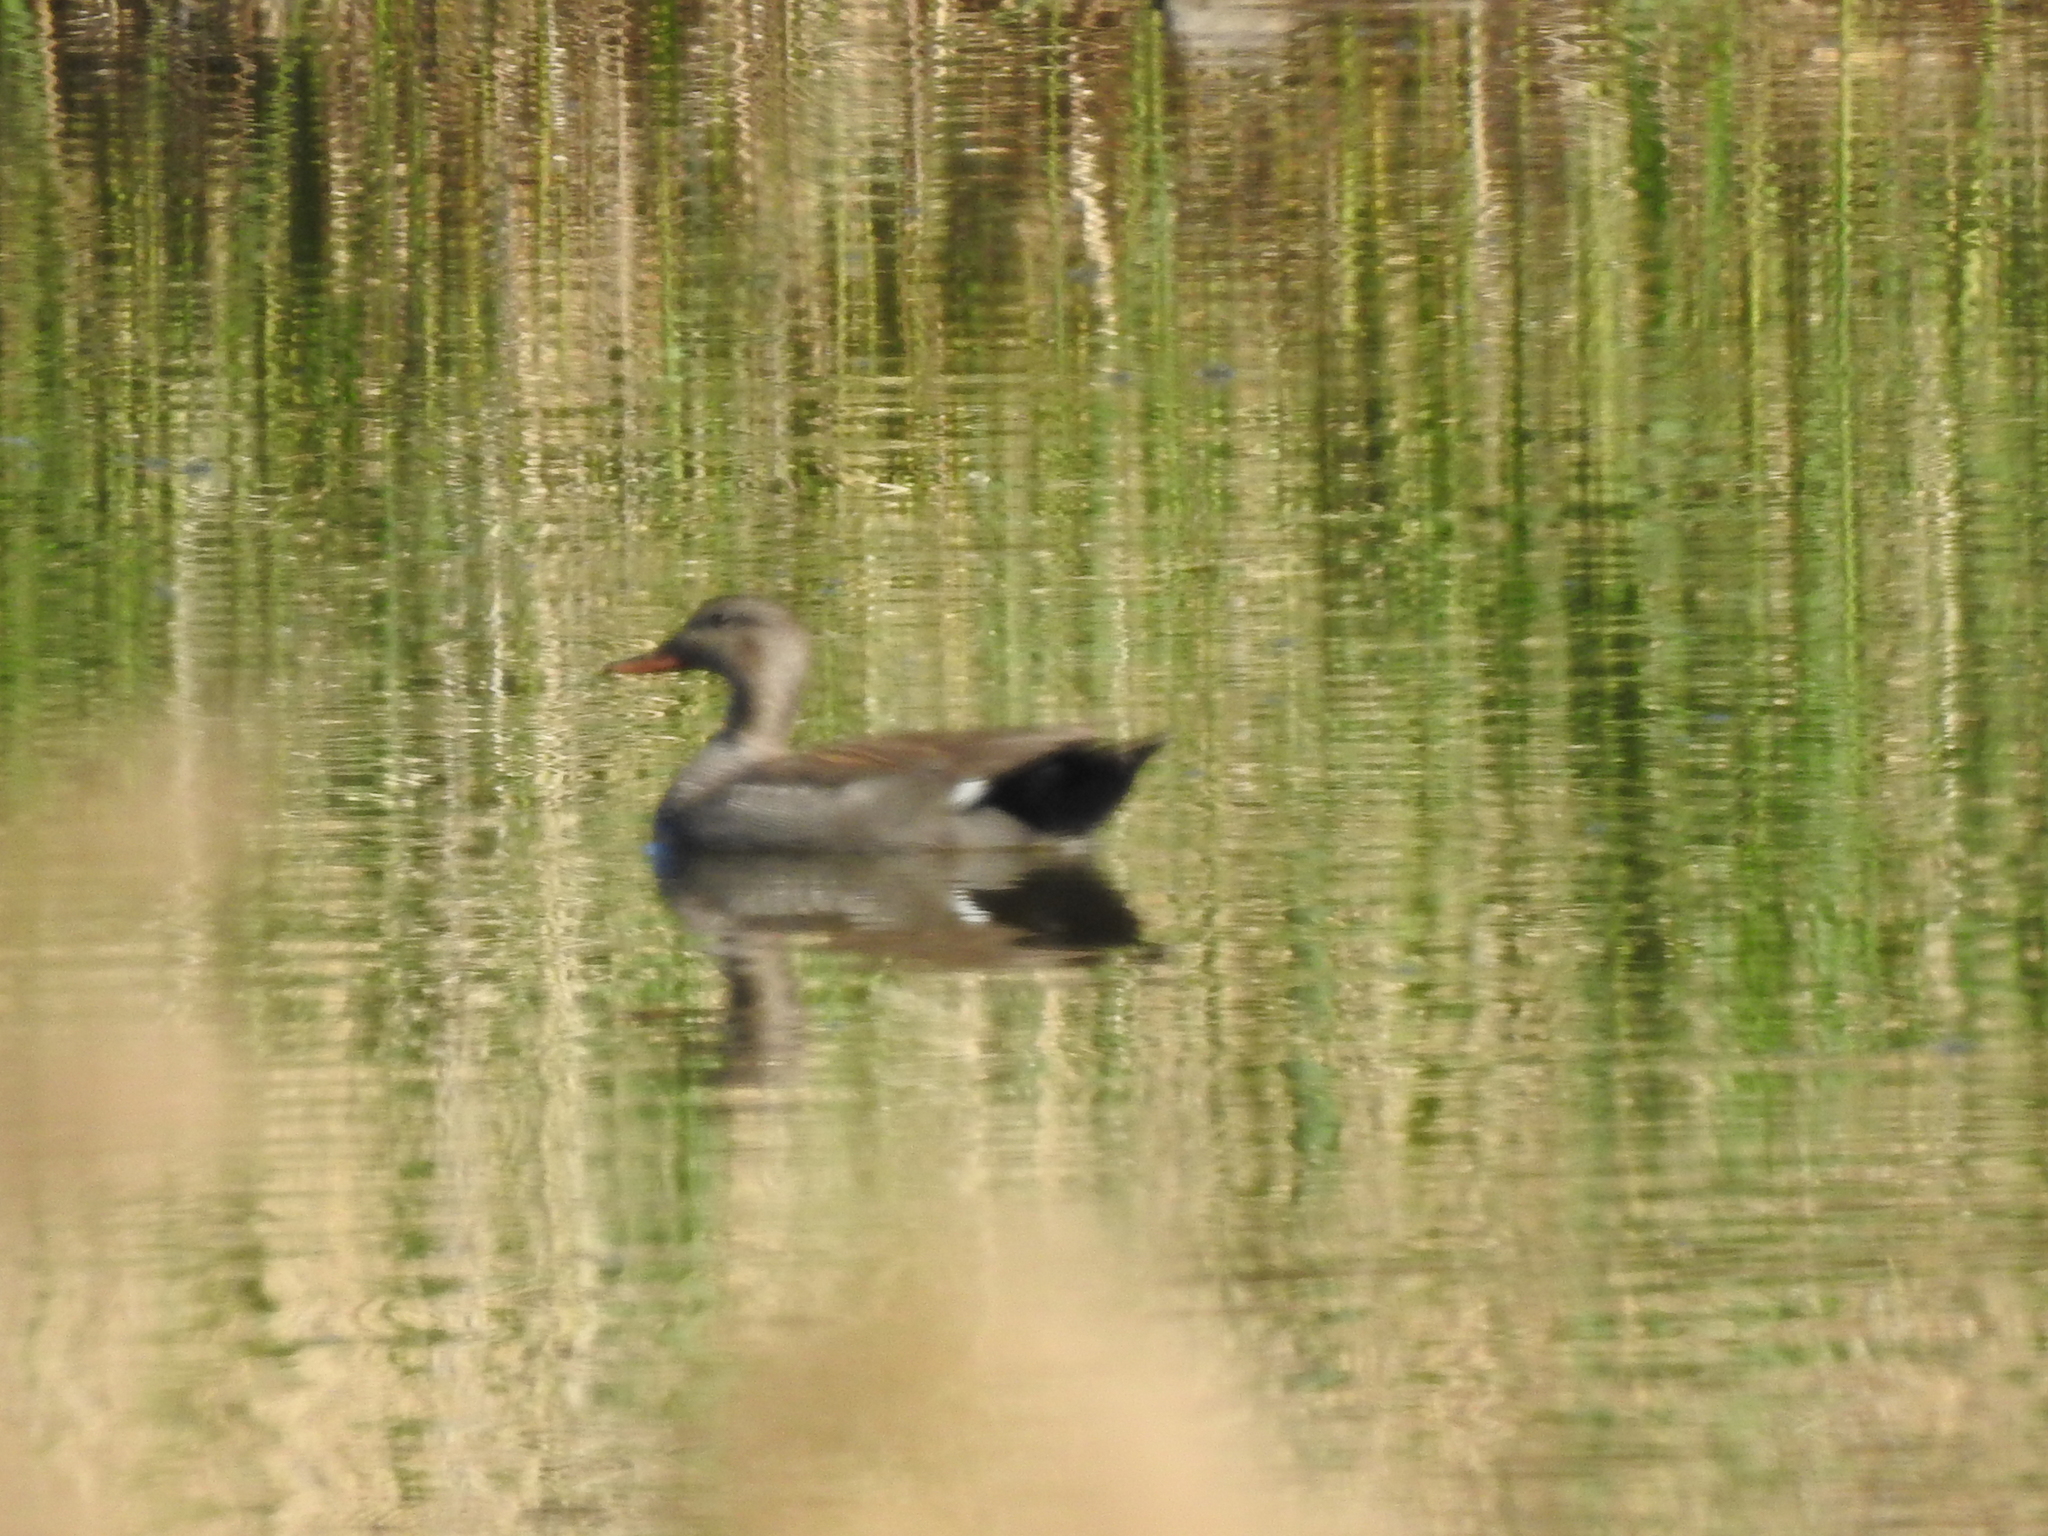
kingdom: Animalia
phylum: Chordata
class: Aves
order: Anseriformes
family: Anatidae
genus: Mareca
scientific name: Mareca strepera
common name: Gadwall
